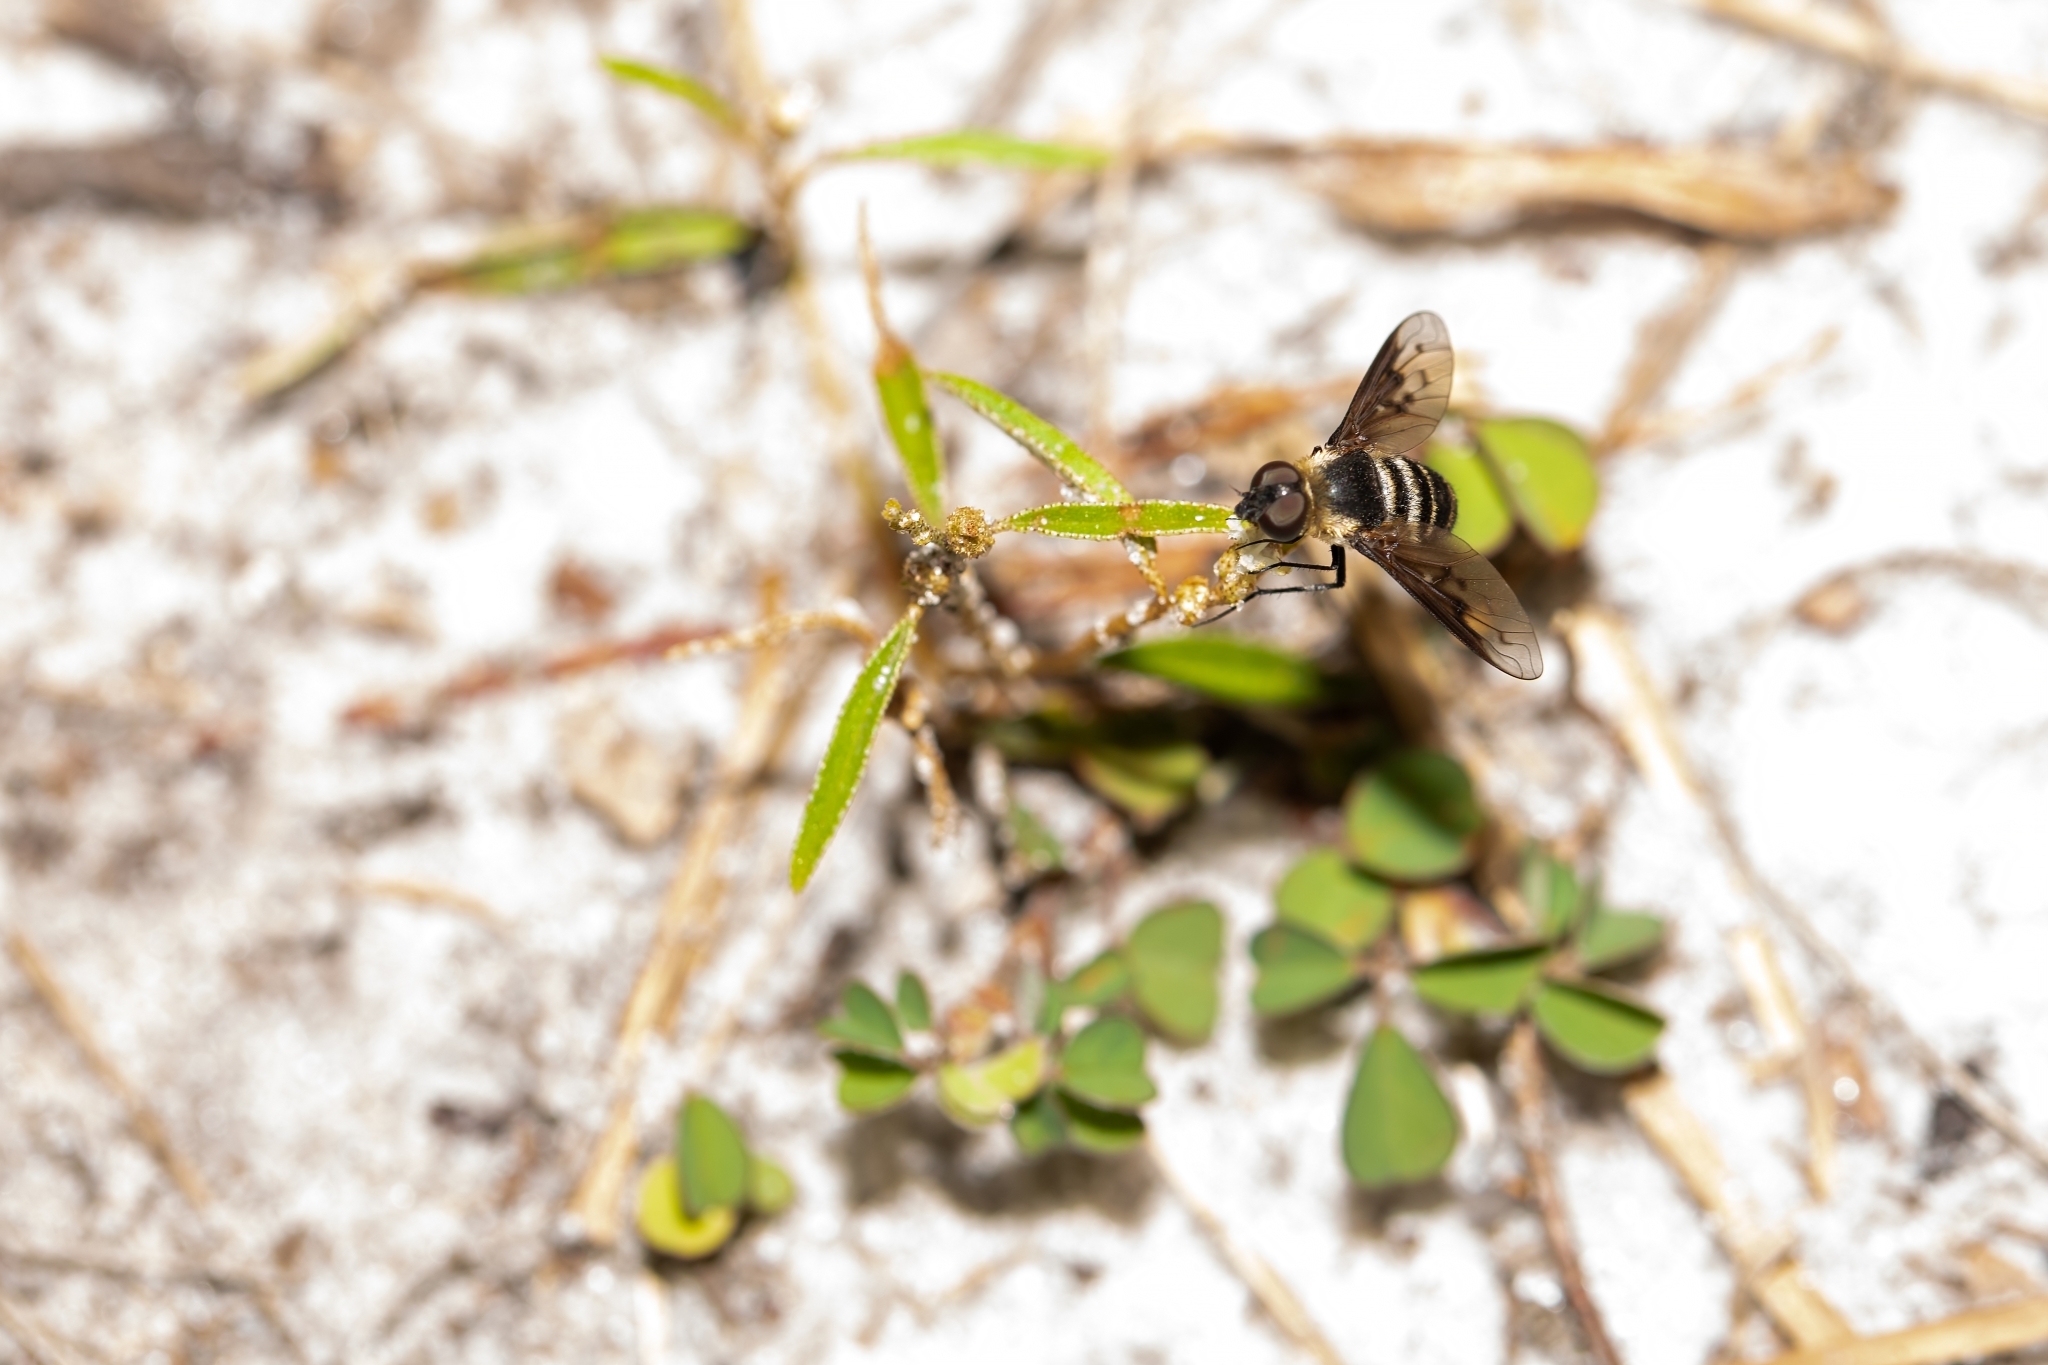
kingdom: Animalia
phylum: Arthropoda
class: Insecta
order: Diptera
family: Bombyliidae
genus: Chrysanthrax
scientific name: Chrysanthrax dispar
